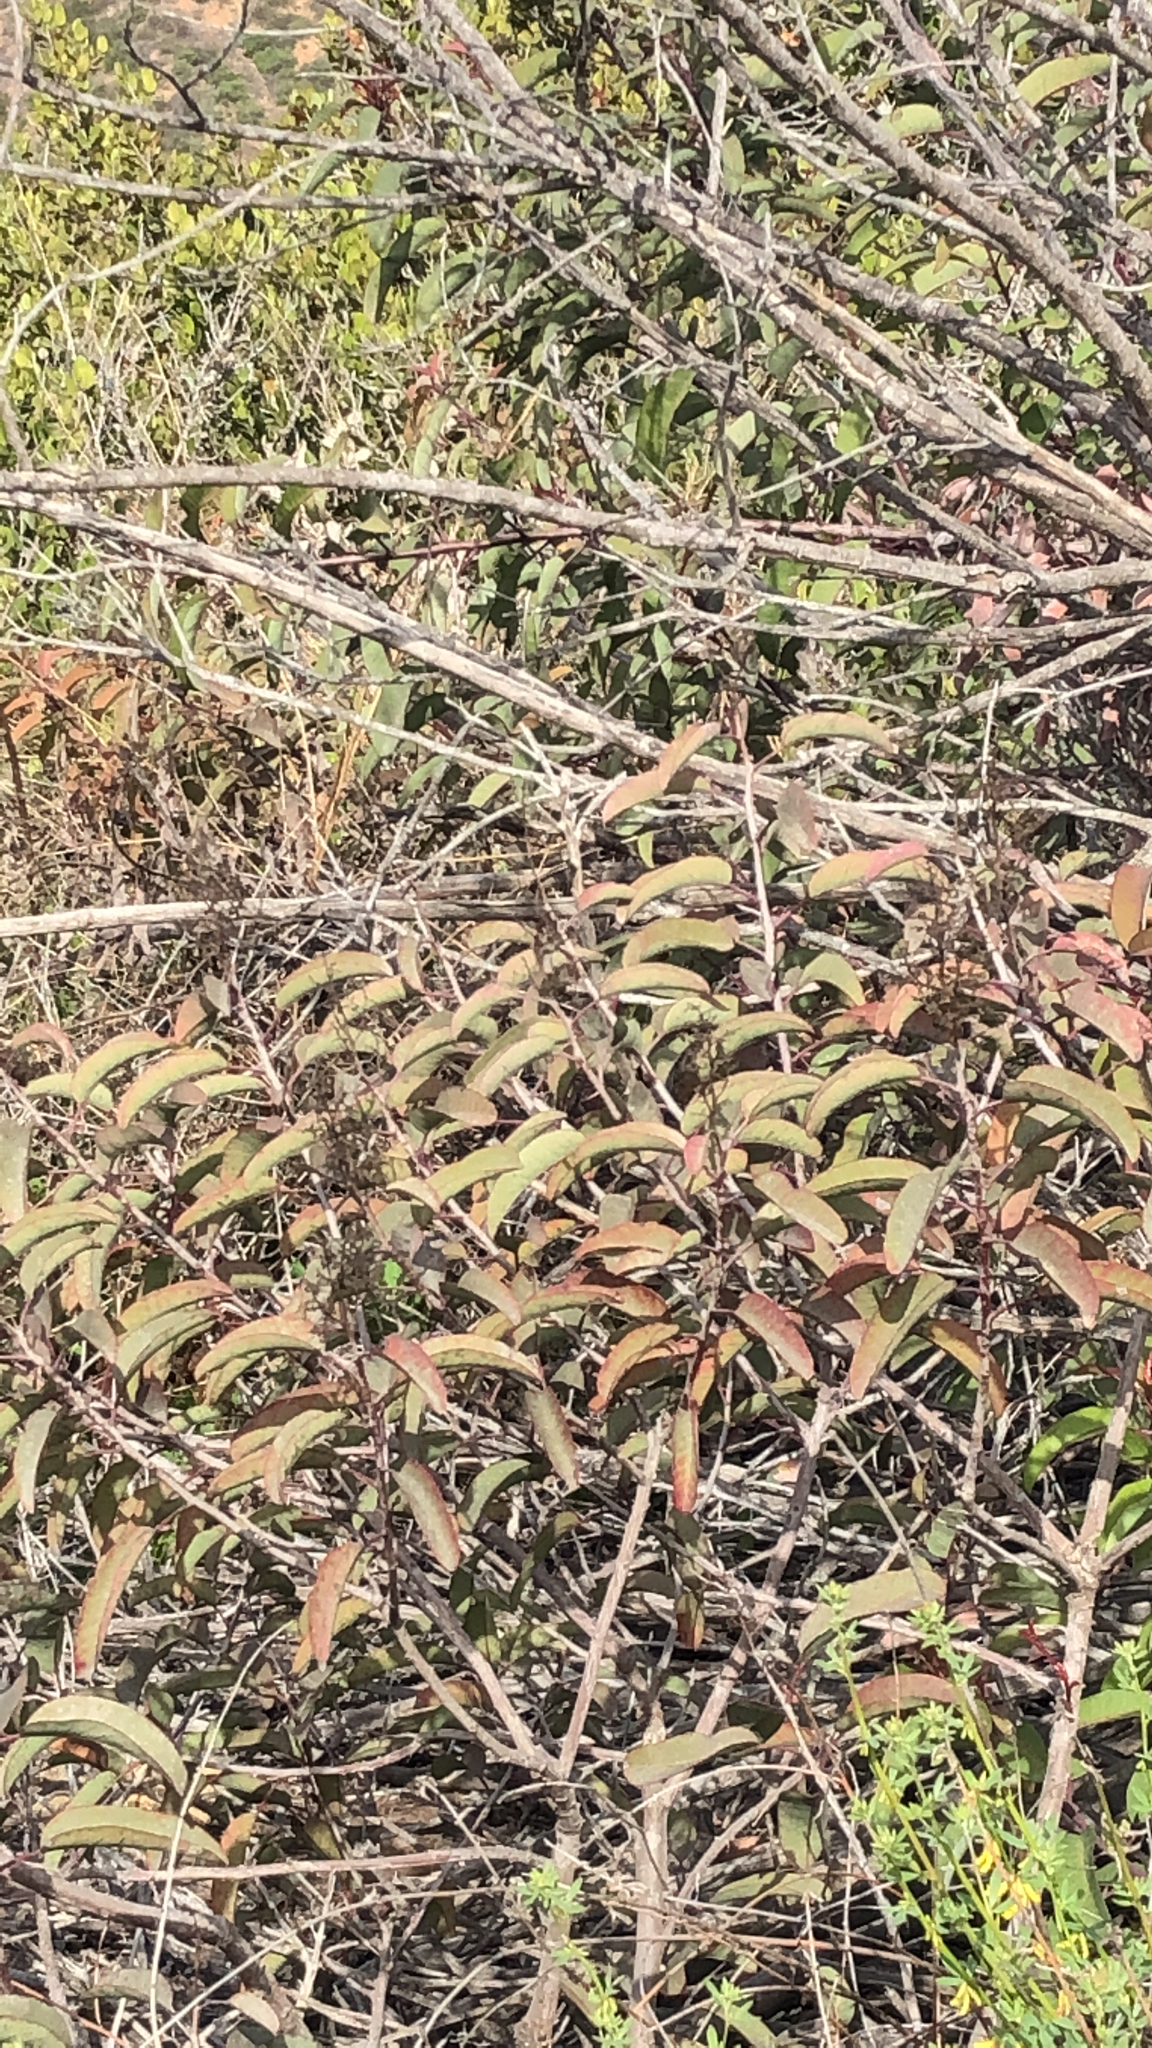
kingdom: Plantae
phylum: Tracheophyta
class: Magnoliopsida
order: Sapindales
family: Anacardiaceae
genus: Malosma
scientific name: Malosma laurina
